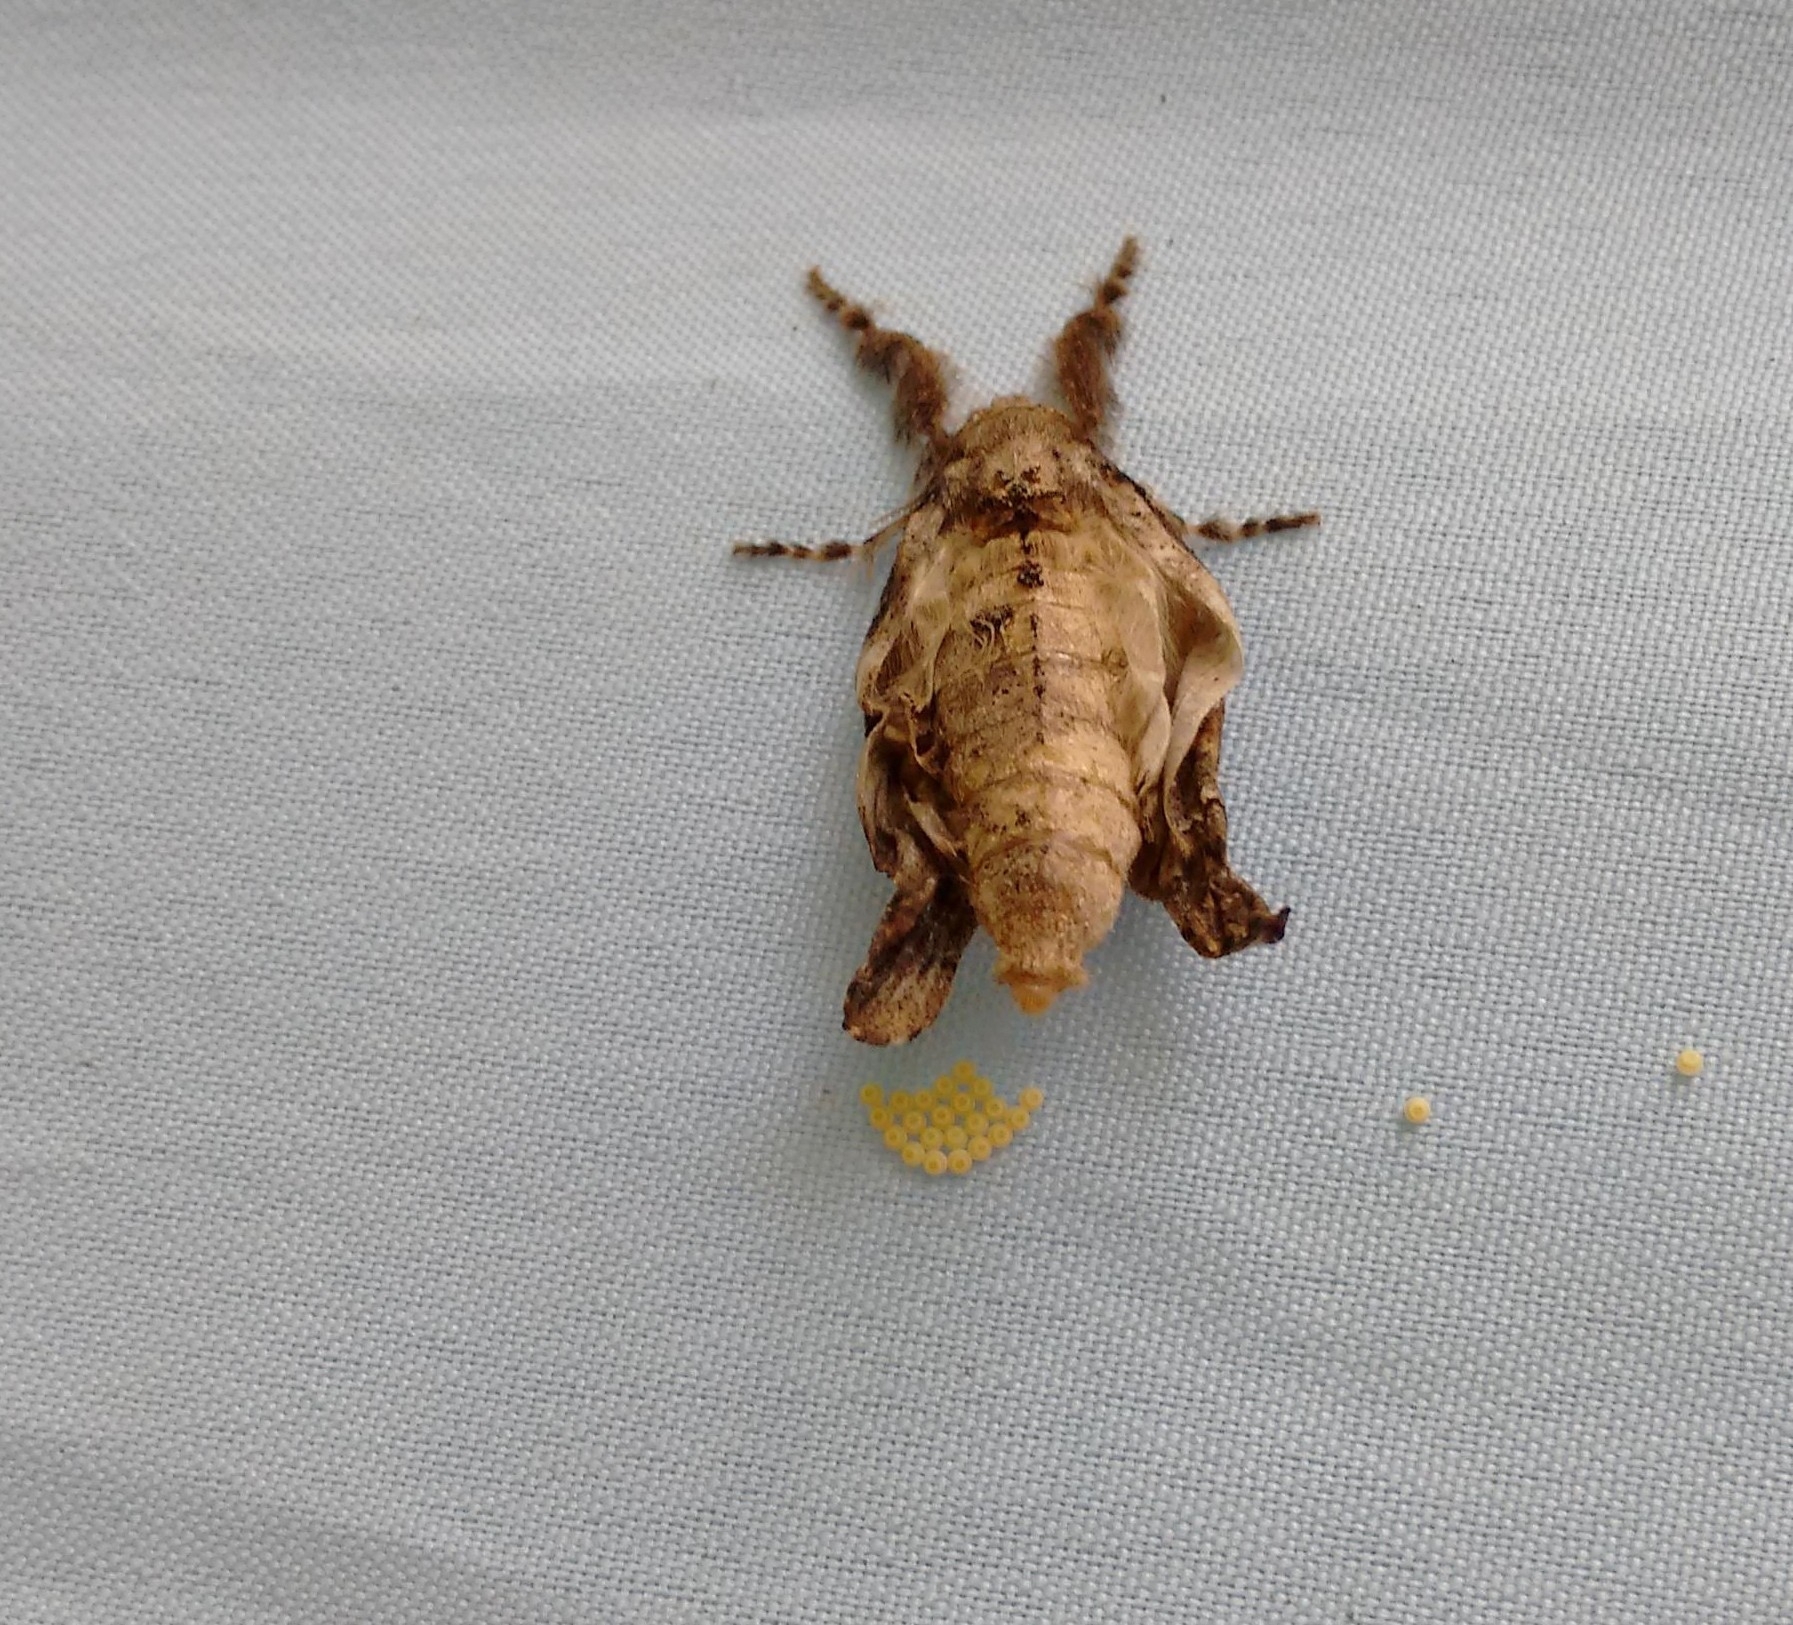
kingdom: Animalia
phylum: Arthropoda
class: Insecta
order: Lepidoptera
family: Erebidae
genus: Olene
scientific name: Olene mendosa
